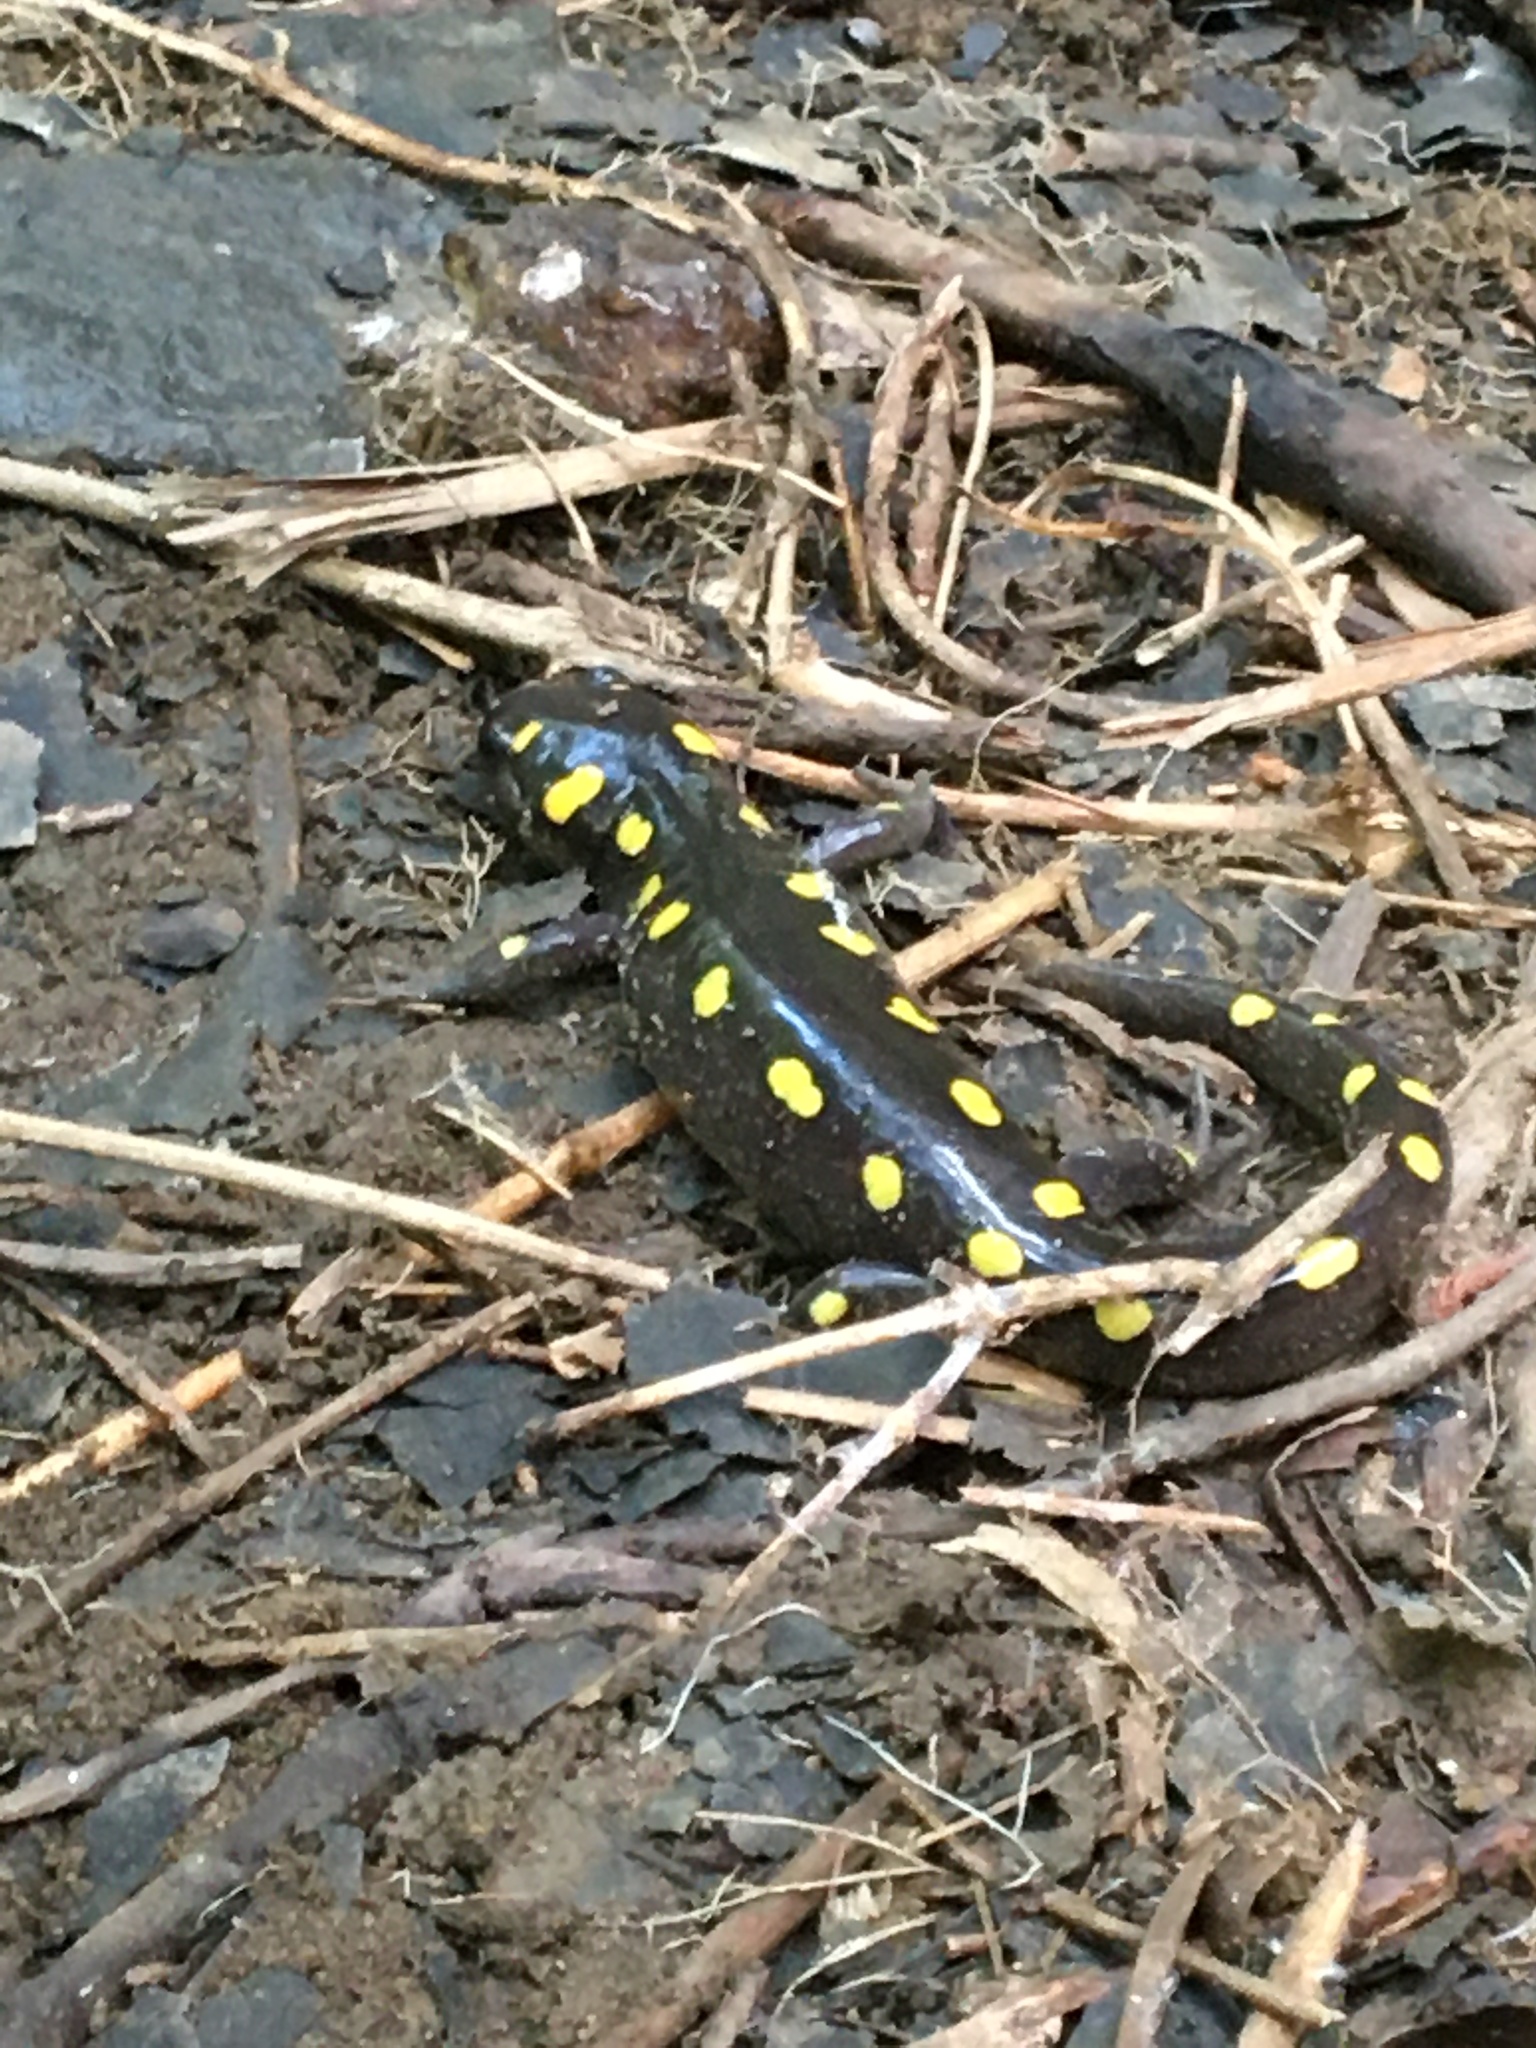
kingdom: Animalia
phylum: Chordata
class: Amphibia
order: Caudata
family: Ambystomatidae
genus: Ambystoma
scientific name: Ambystoma maculatum
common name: Spotted salamander
